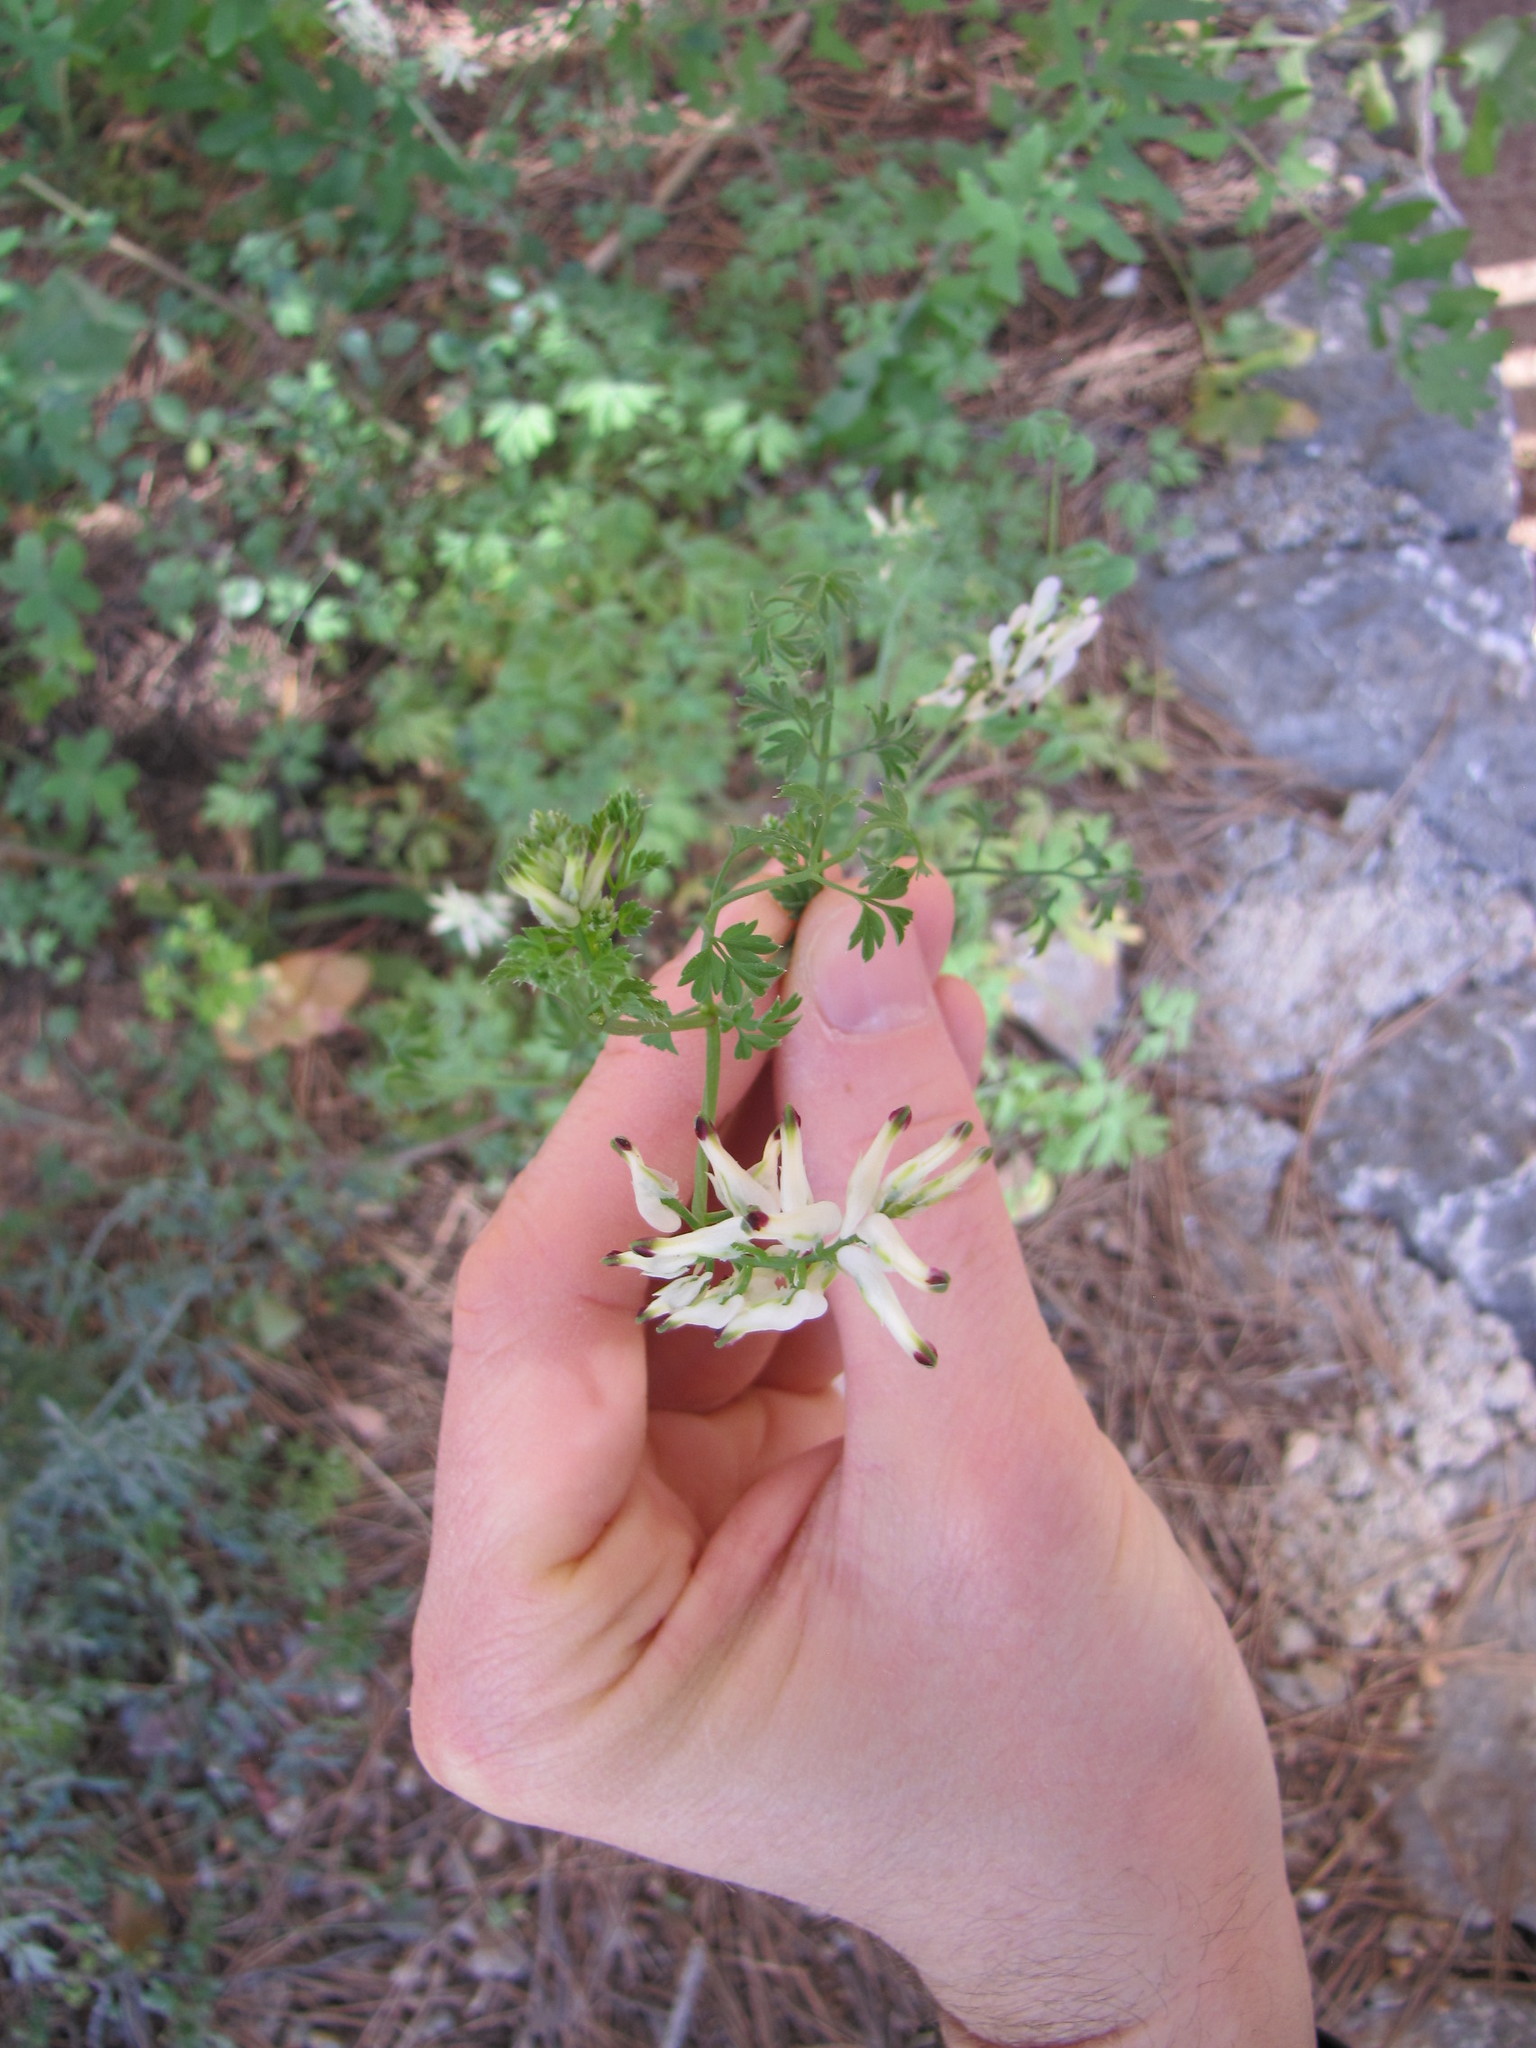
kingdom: Plantae
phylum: Tracheophyta
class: Magnoliopsida
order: Ranunculales
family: Papaveraceae
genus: Fumaria
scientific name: Fumaria capreolata
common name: White ramping-fumitory
